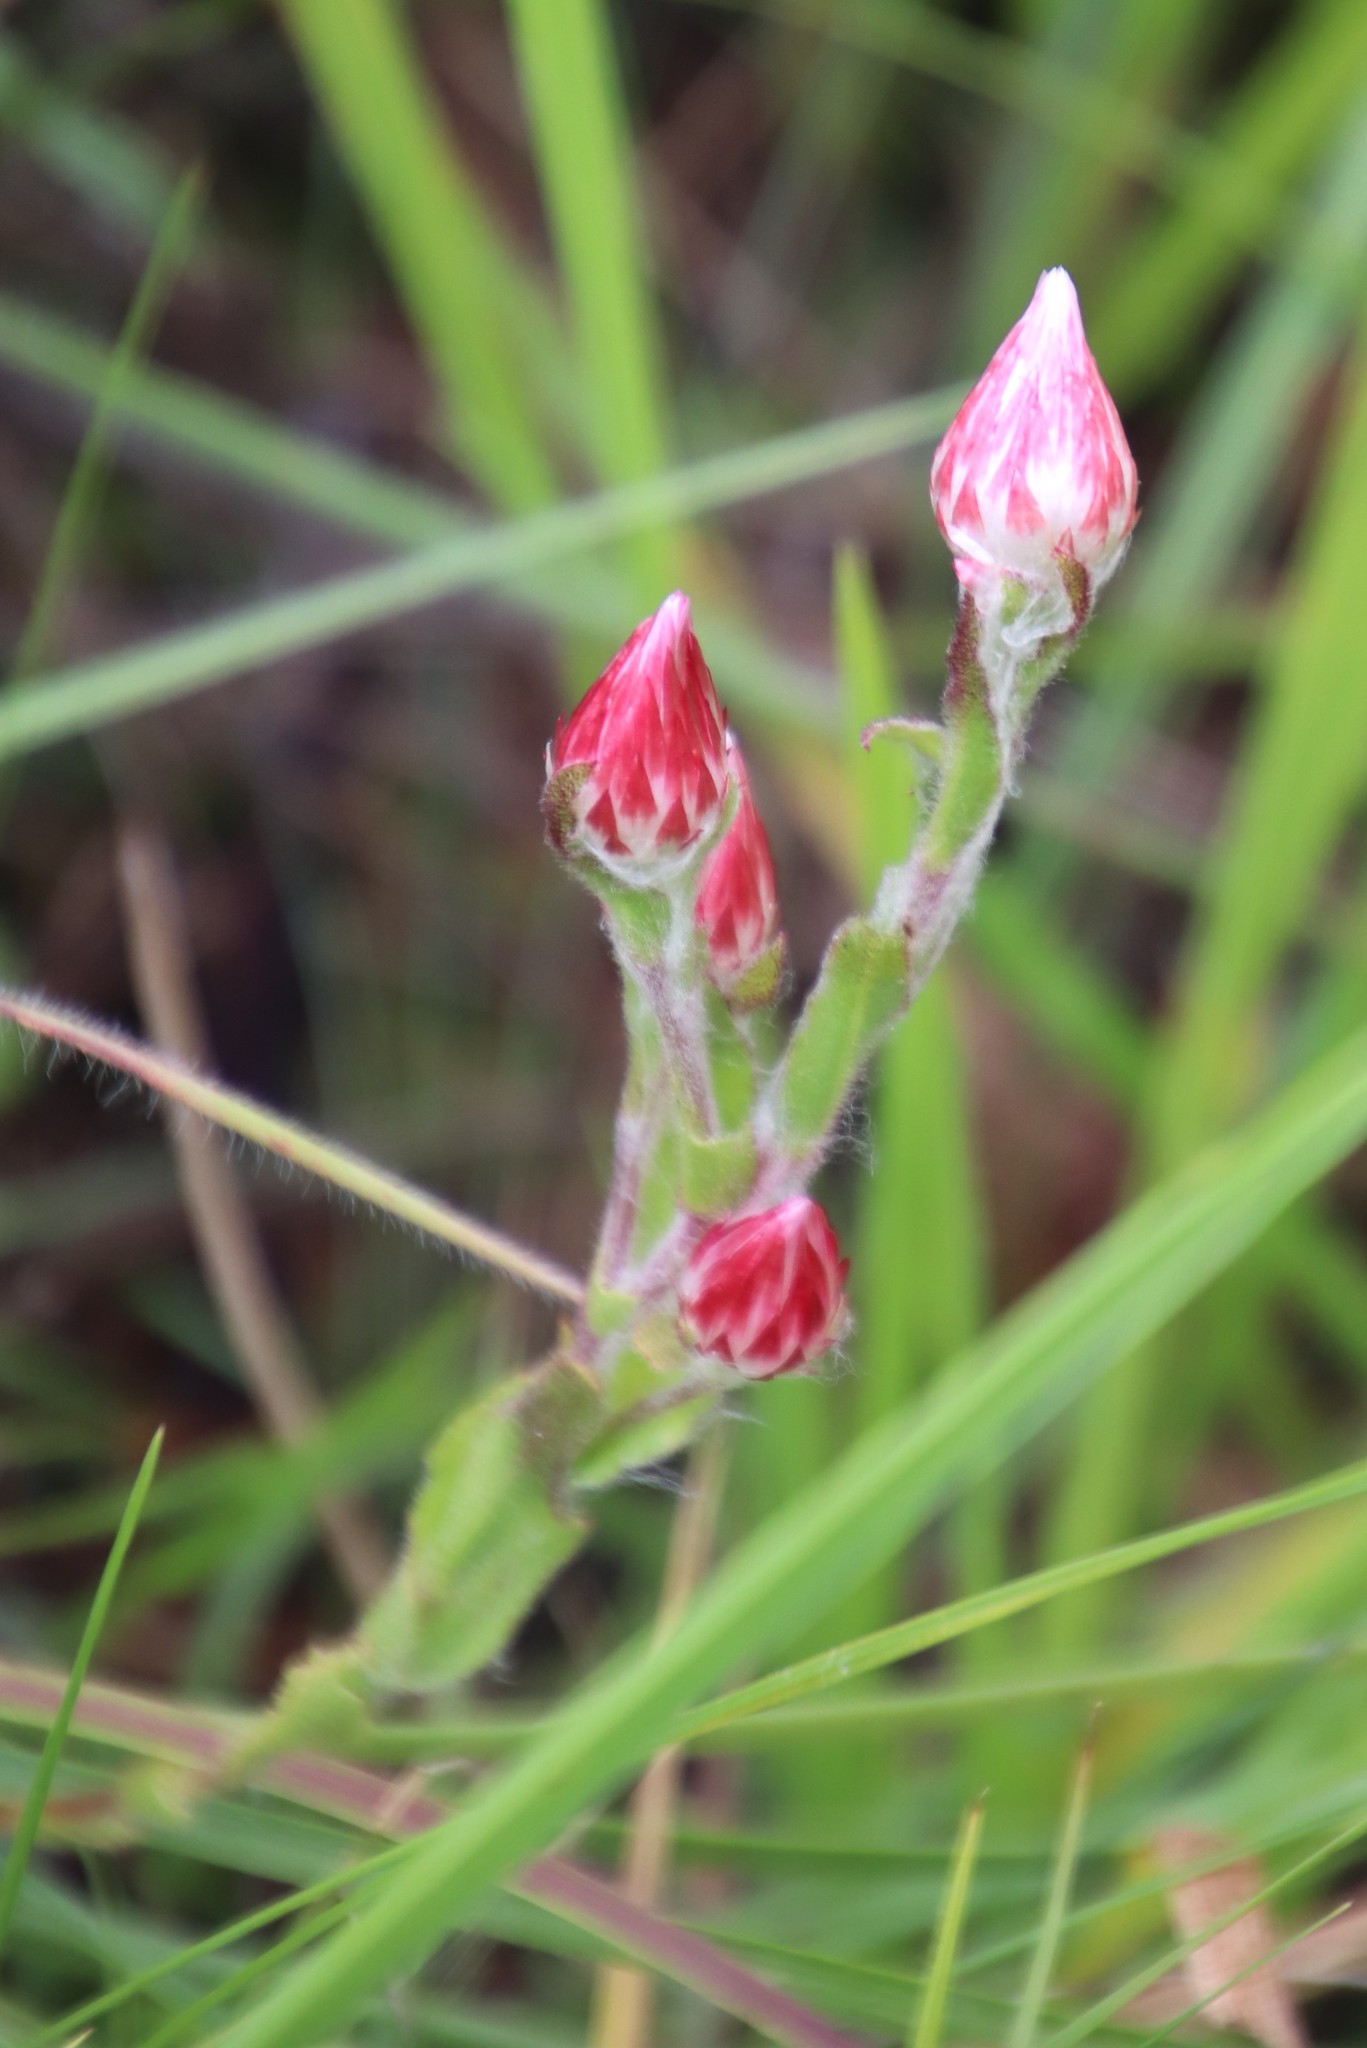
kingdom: Plantae
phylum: Tracheophyta
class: Magnoliopsida
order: Asterales
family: Asteraceae
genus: Helichrysum
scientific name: Helichrysum adenocarpum
